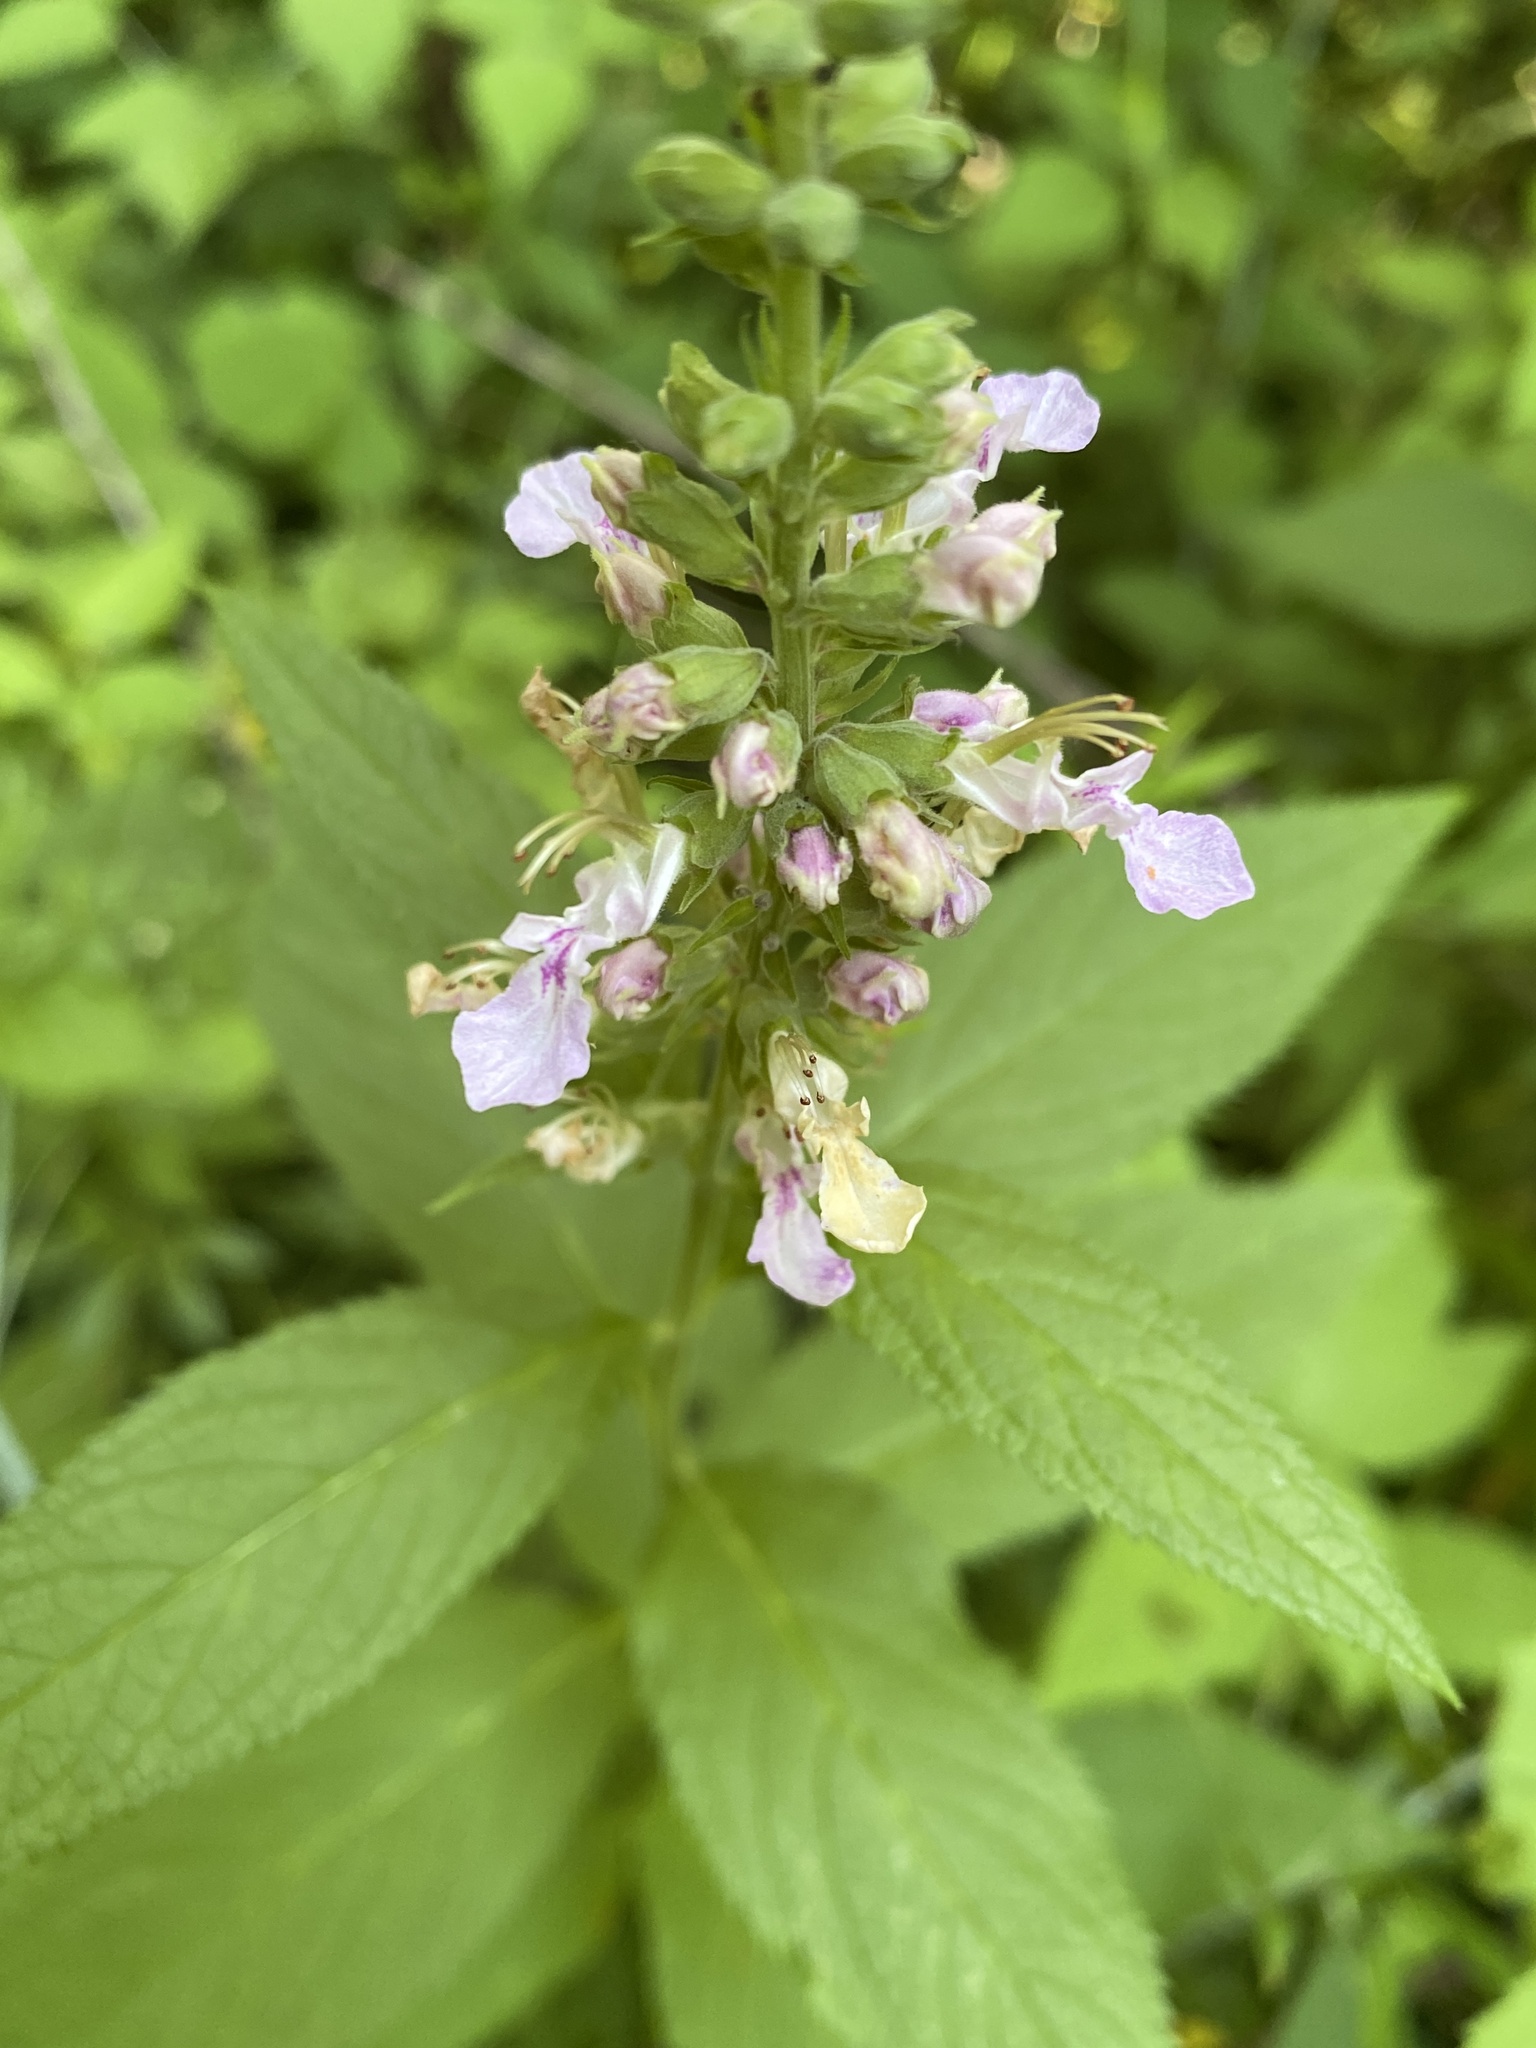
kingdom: Plantae
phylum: Tracheophyta
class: Magnoliopsida
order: Lamiales
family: Lamiaceae
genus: Teucrium
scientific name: Teucrium canadense
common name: American germander
